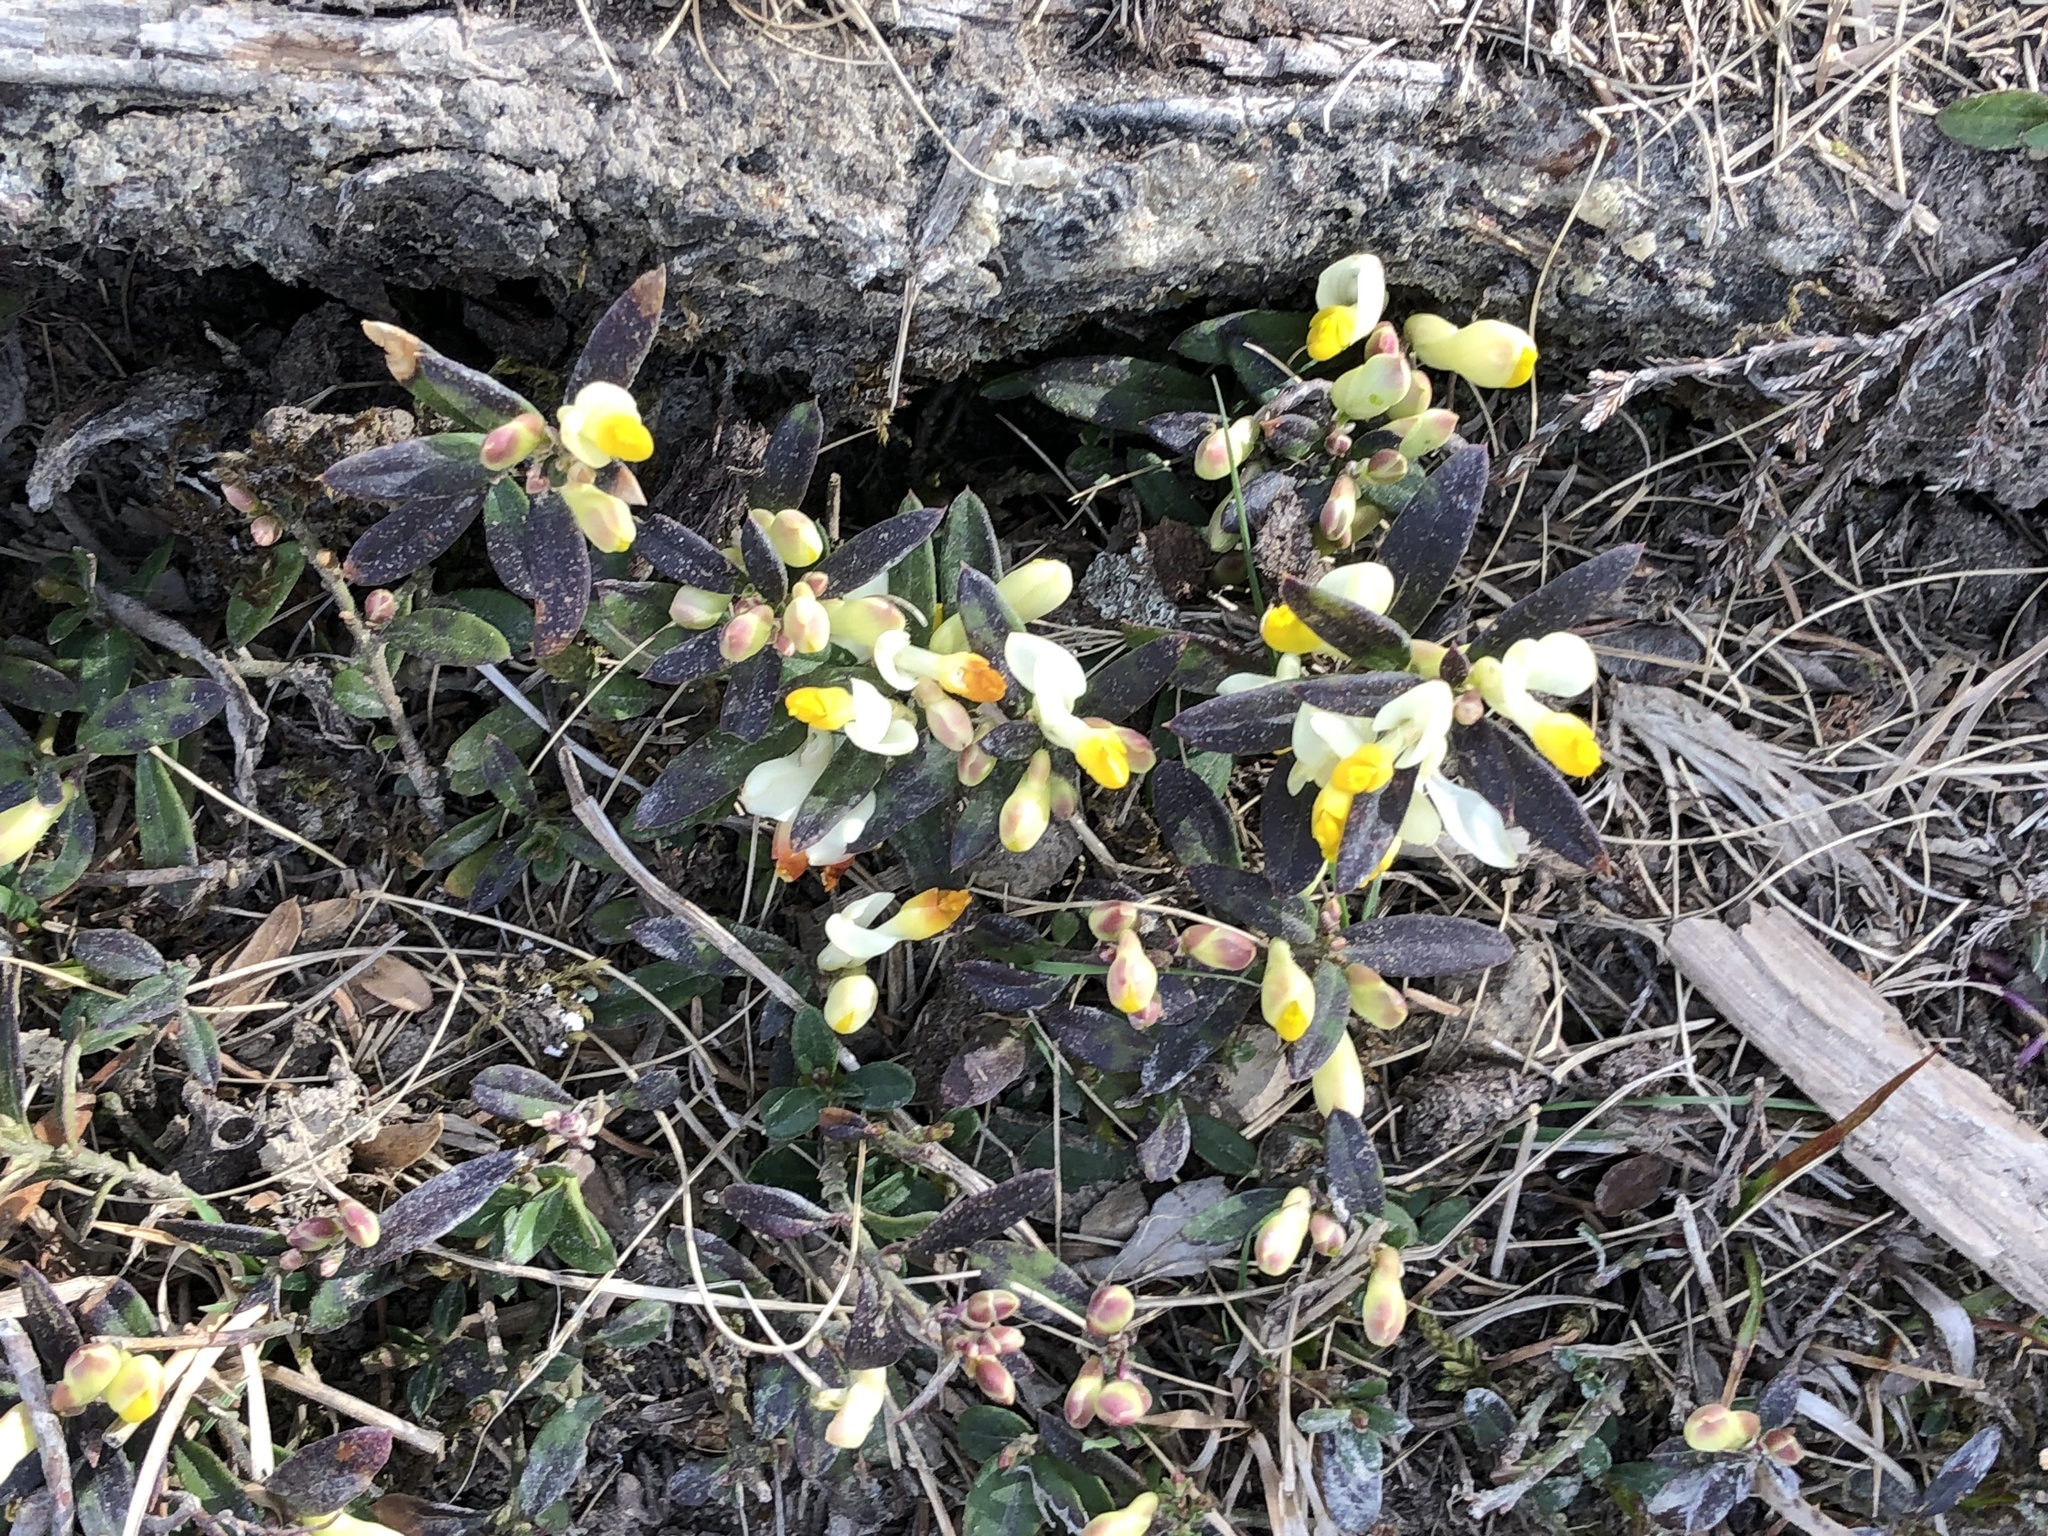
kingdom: Plantae
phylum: Tracheophyta
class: Magnoliopsida
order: Fabales
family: Polygalaceae
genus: Polygaloides
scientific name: Polygaloides chamaebuxus
